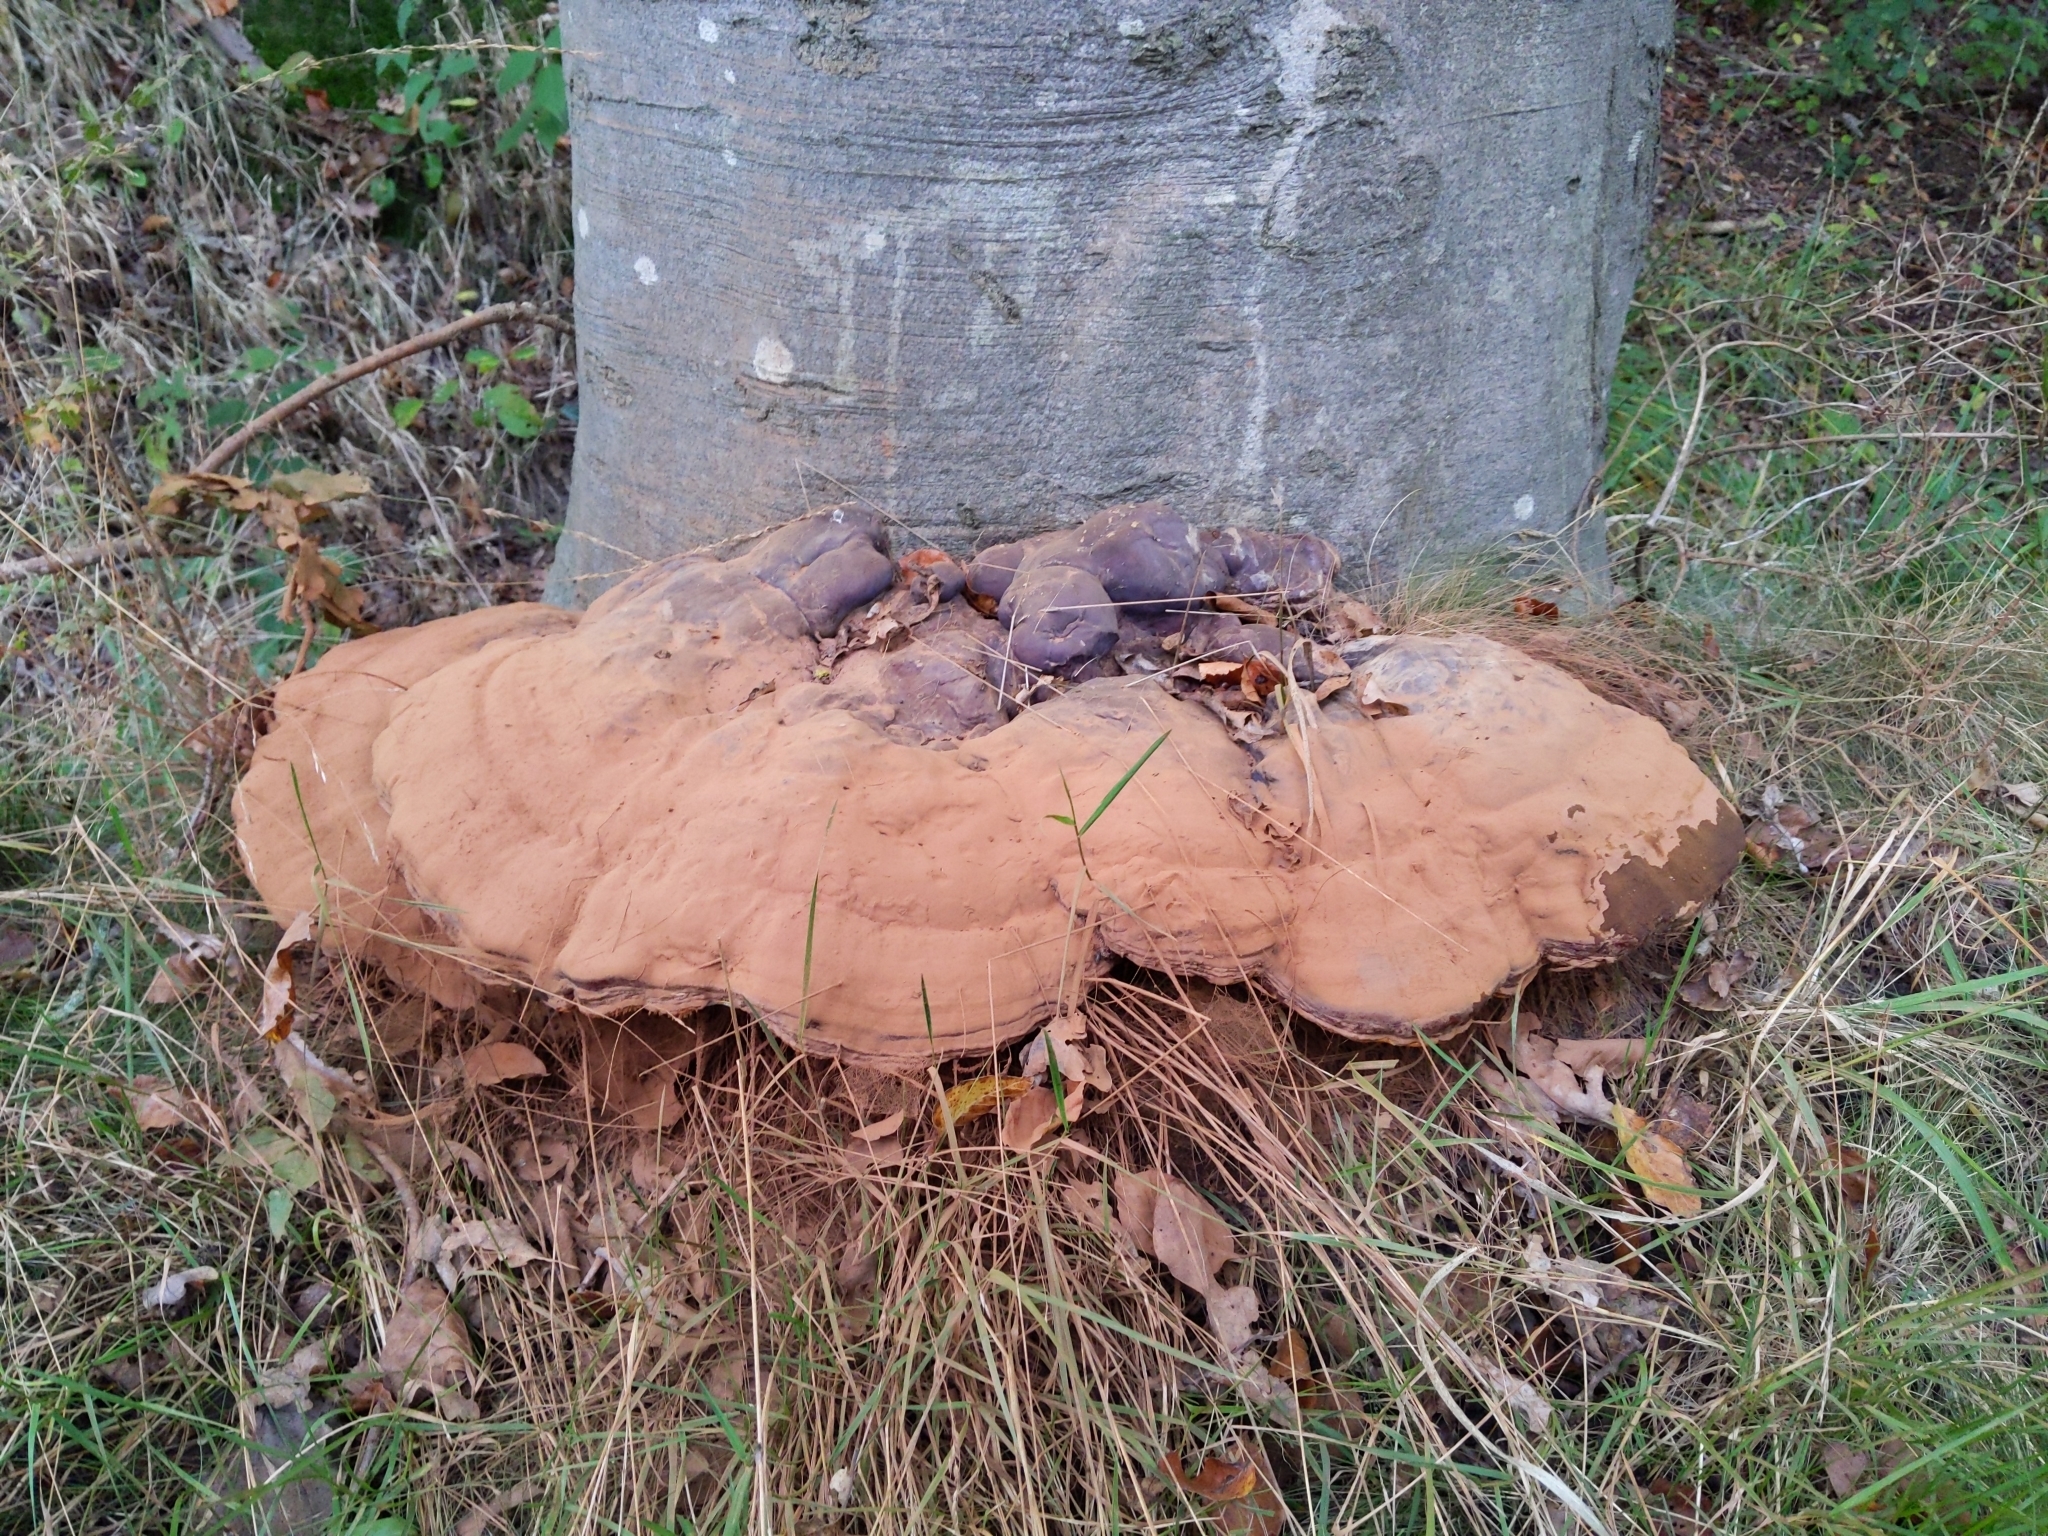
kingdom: Fungi
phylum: Basidiomycota
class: Agaricomycetes
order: Polyporales
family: Polyporaceae
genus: Ganoderma
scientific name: Ganoderma applanatum
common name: Artist's bracket
